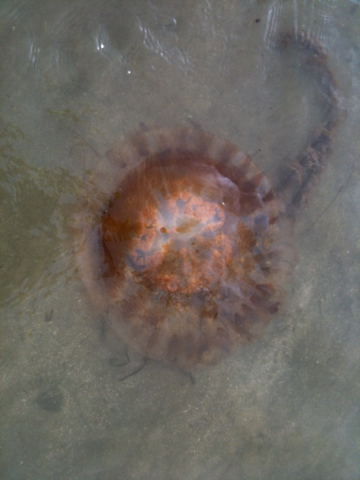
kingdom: Animalia
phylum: Cnidaria
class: Scyphozoa
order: Semaeostomeae
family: Pelagiidae
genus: Chrysaora
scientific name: Chrysaora fuscescens
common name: Sea nettle
